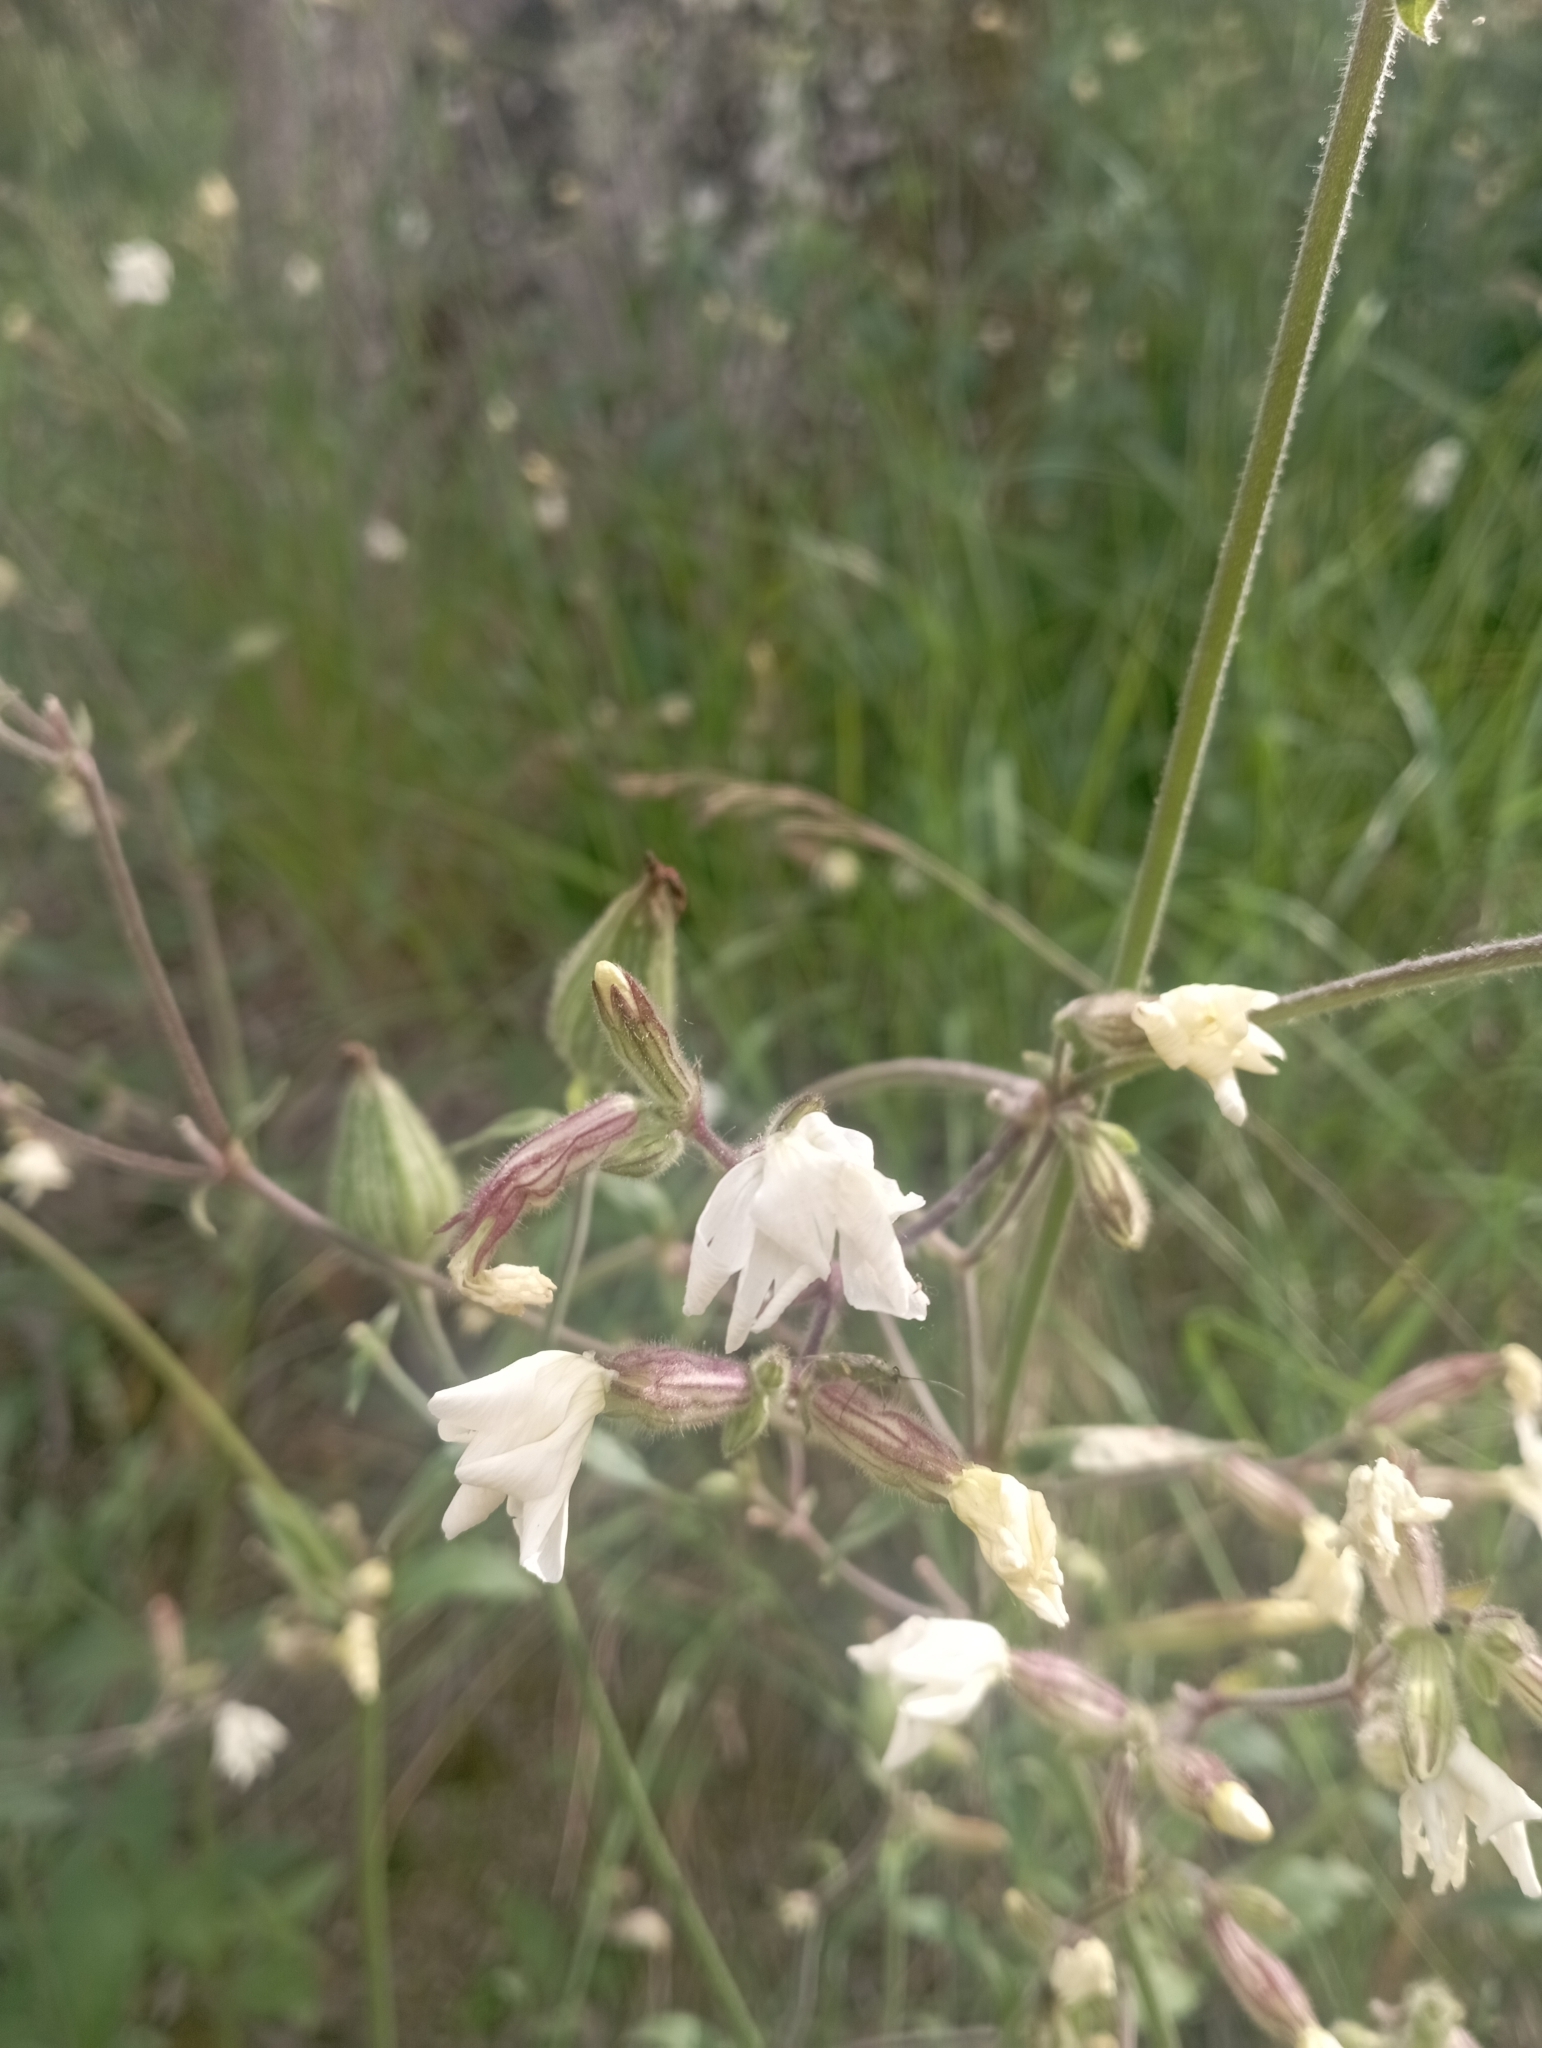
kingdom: Plantae
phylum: Tracheophyta
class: Magnoliopsida
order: Caryophyllales
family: Caryophyllaceae
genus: Silene
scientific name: Silene latifolia
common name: White campion
